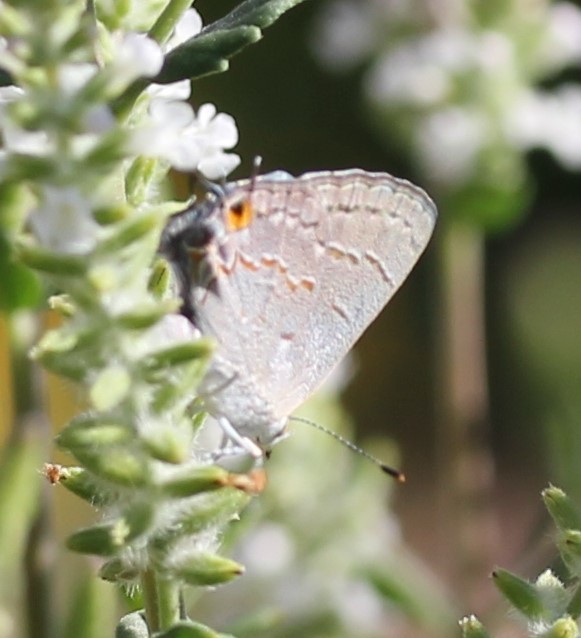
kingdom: Animalia
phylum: Arthropoda
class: Insecta
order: Lepidoptera
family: Lycaenidae
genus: Ministrymon
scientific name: Ministrymon leda
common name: Leda ministreak
